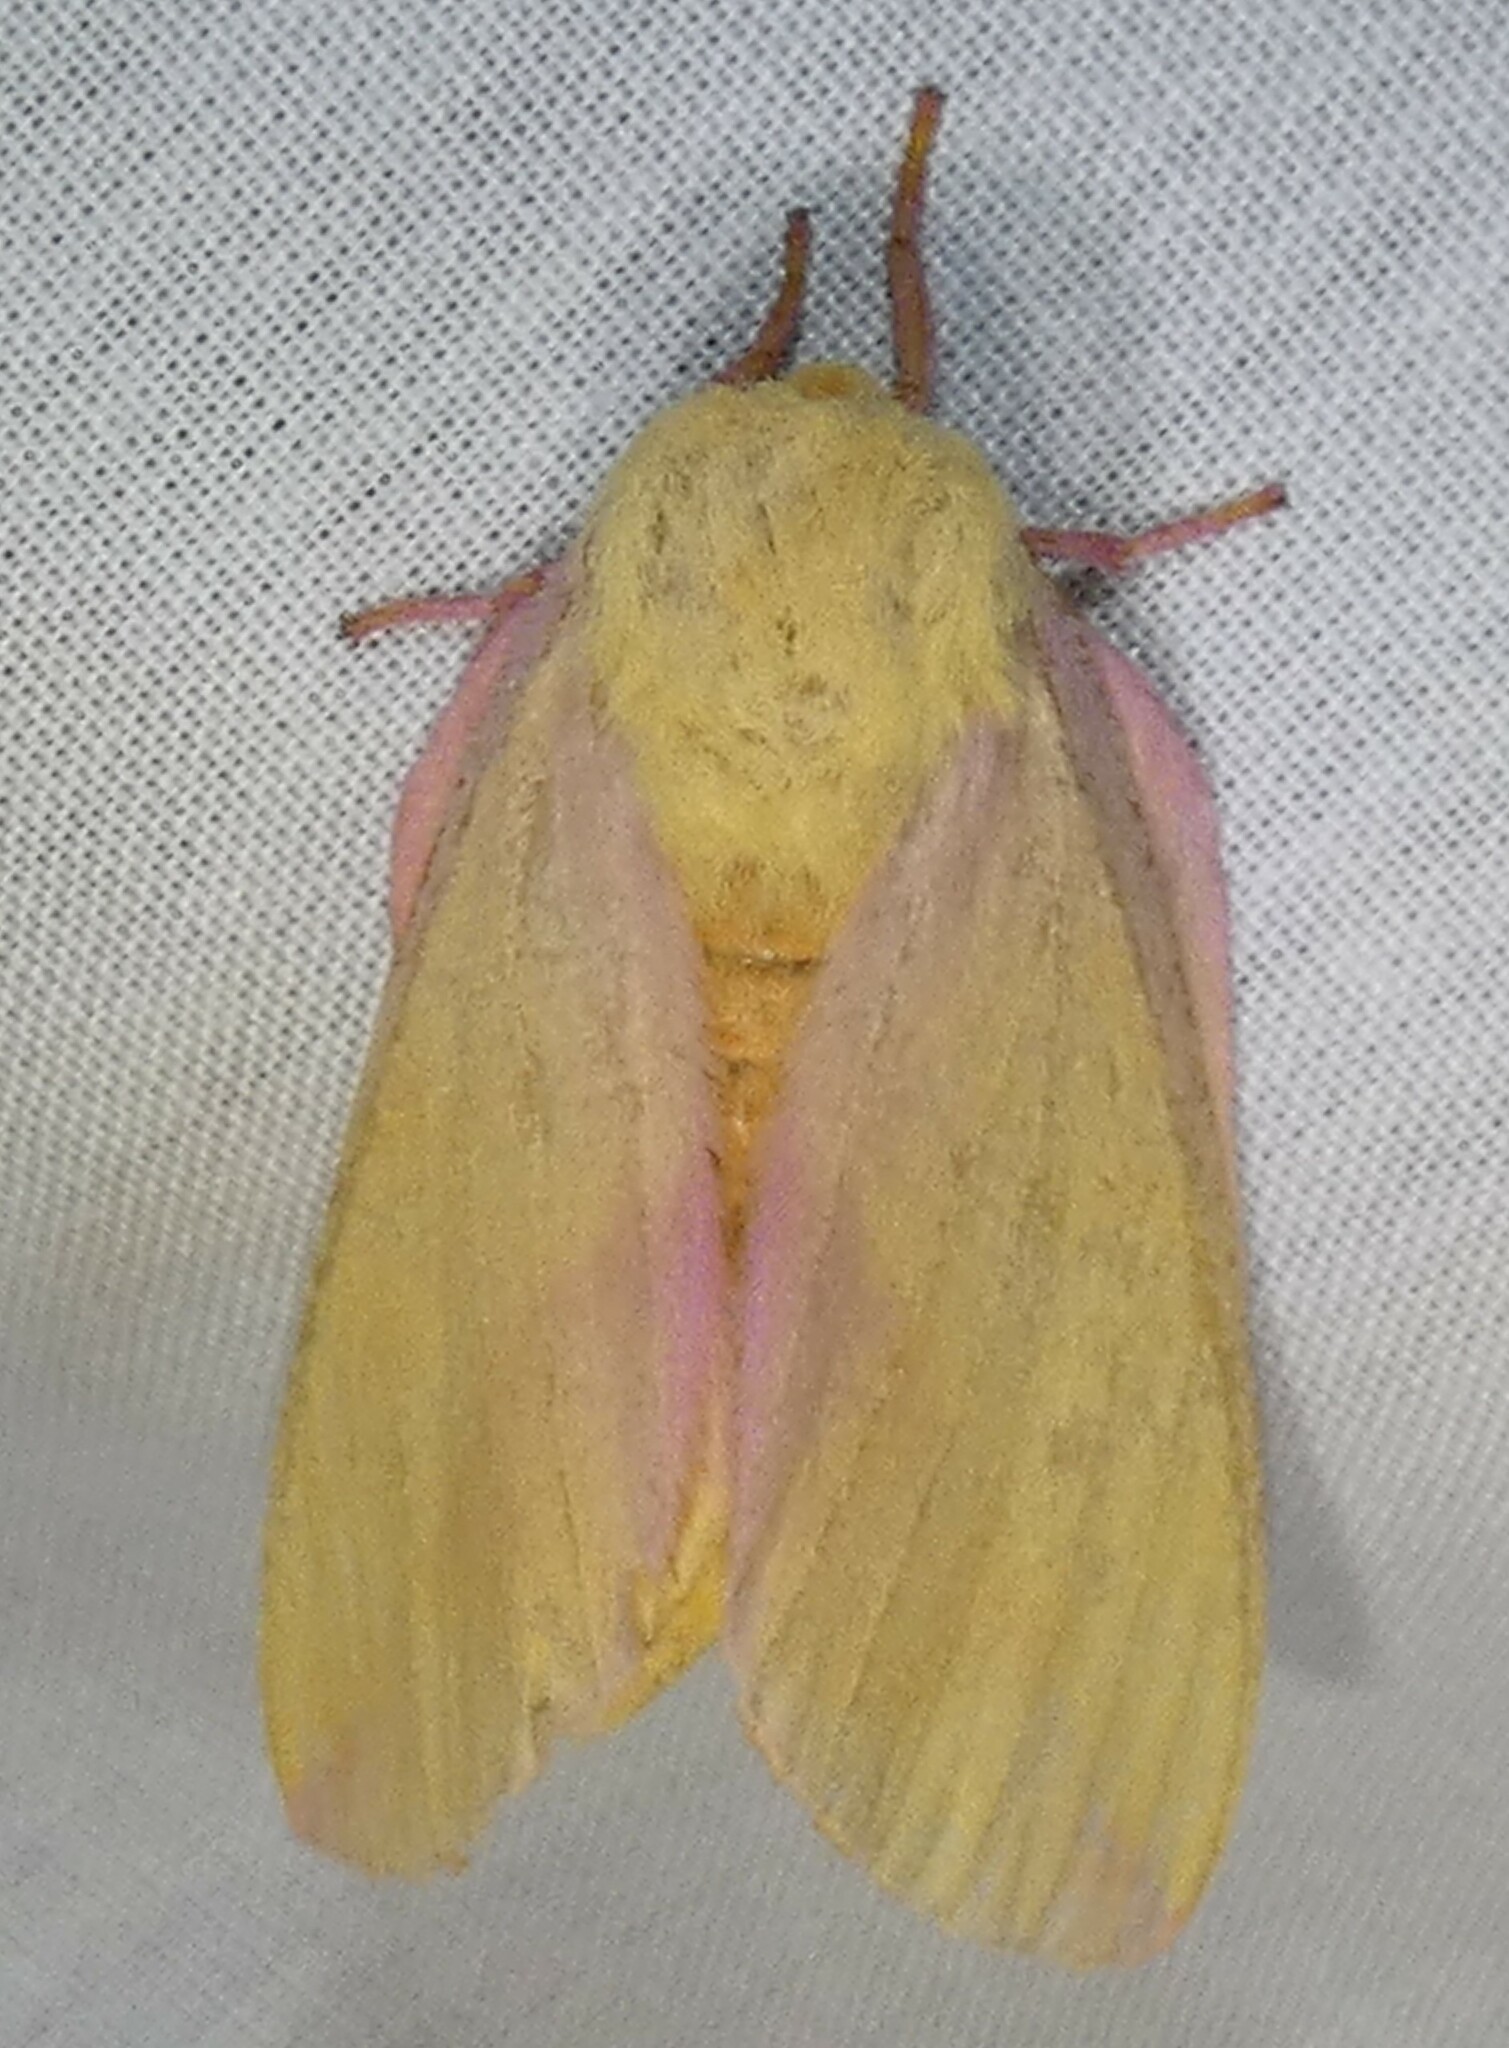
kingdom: Animalia
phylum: Arthropoda
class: Insecta
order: Lepidoptera
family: Saturniidae
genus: Dryocampa
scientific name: Dryocampa rubicunda
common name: Rosy maple moth
